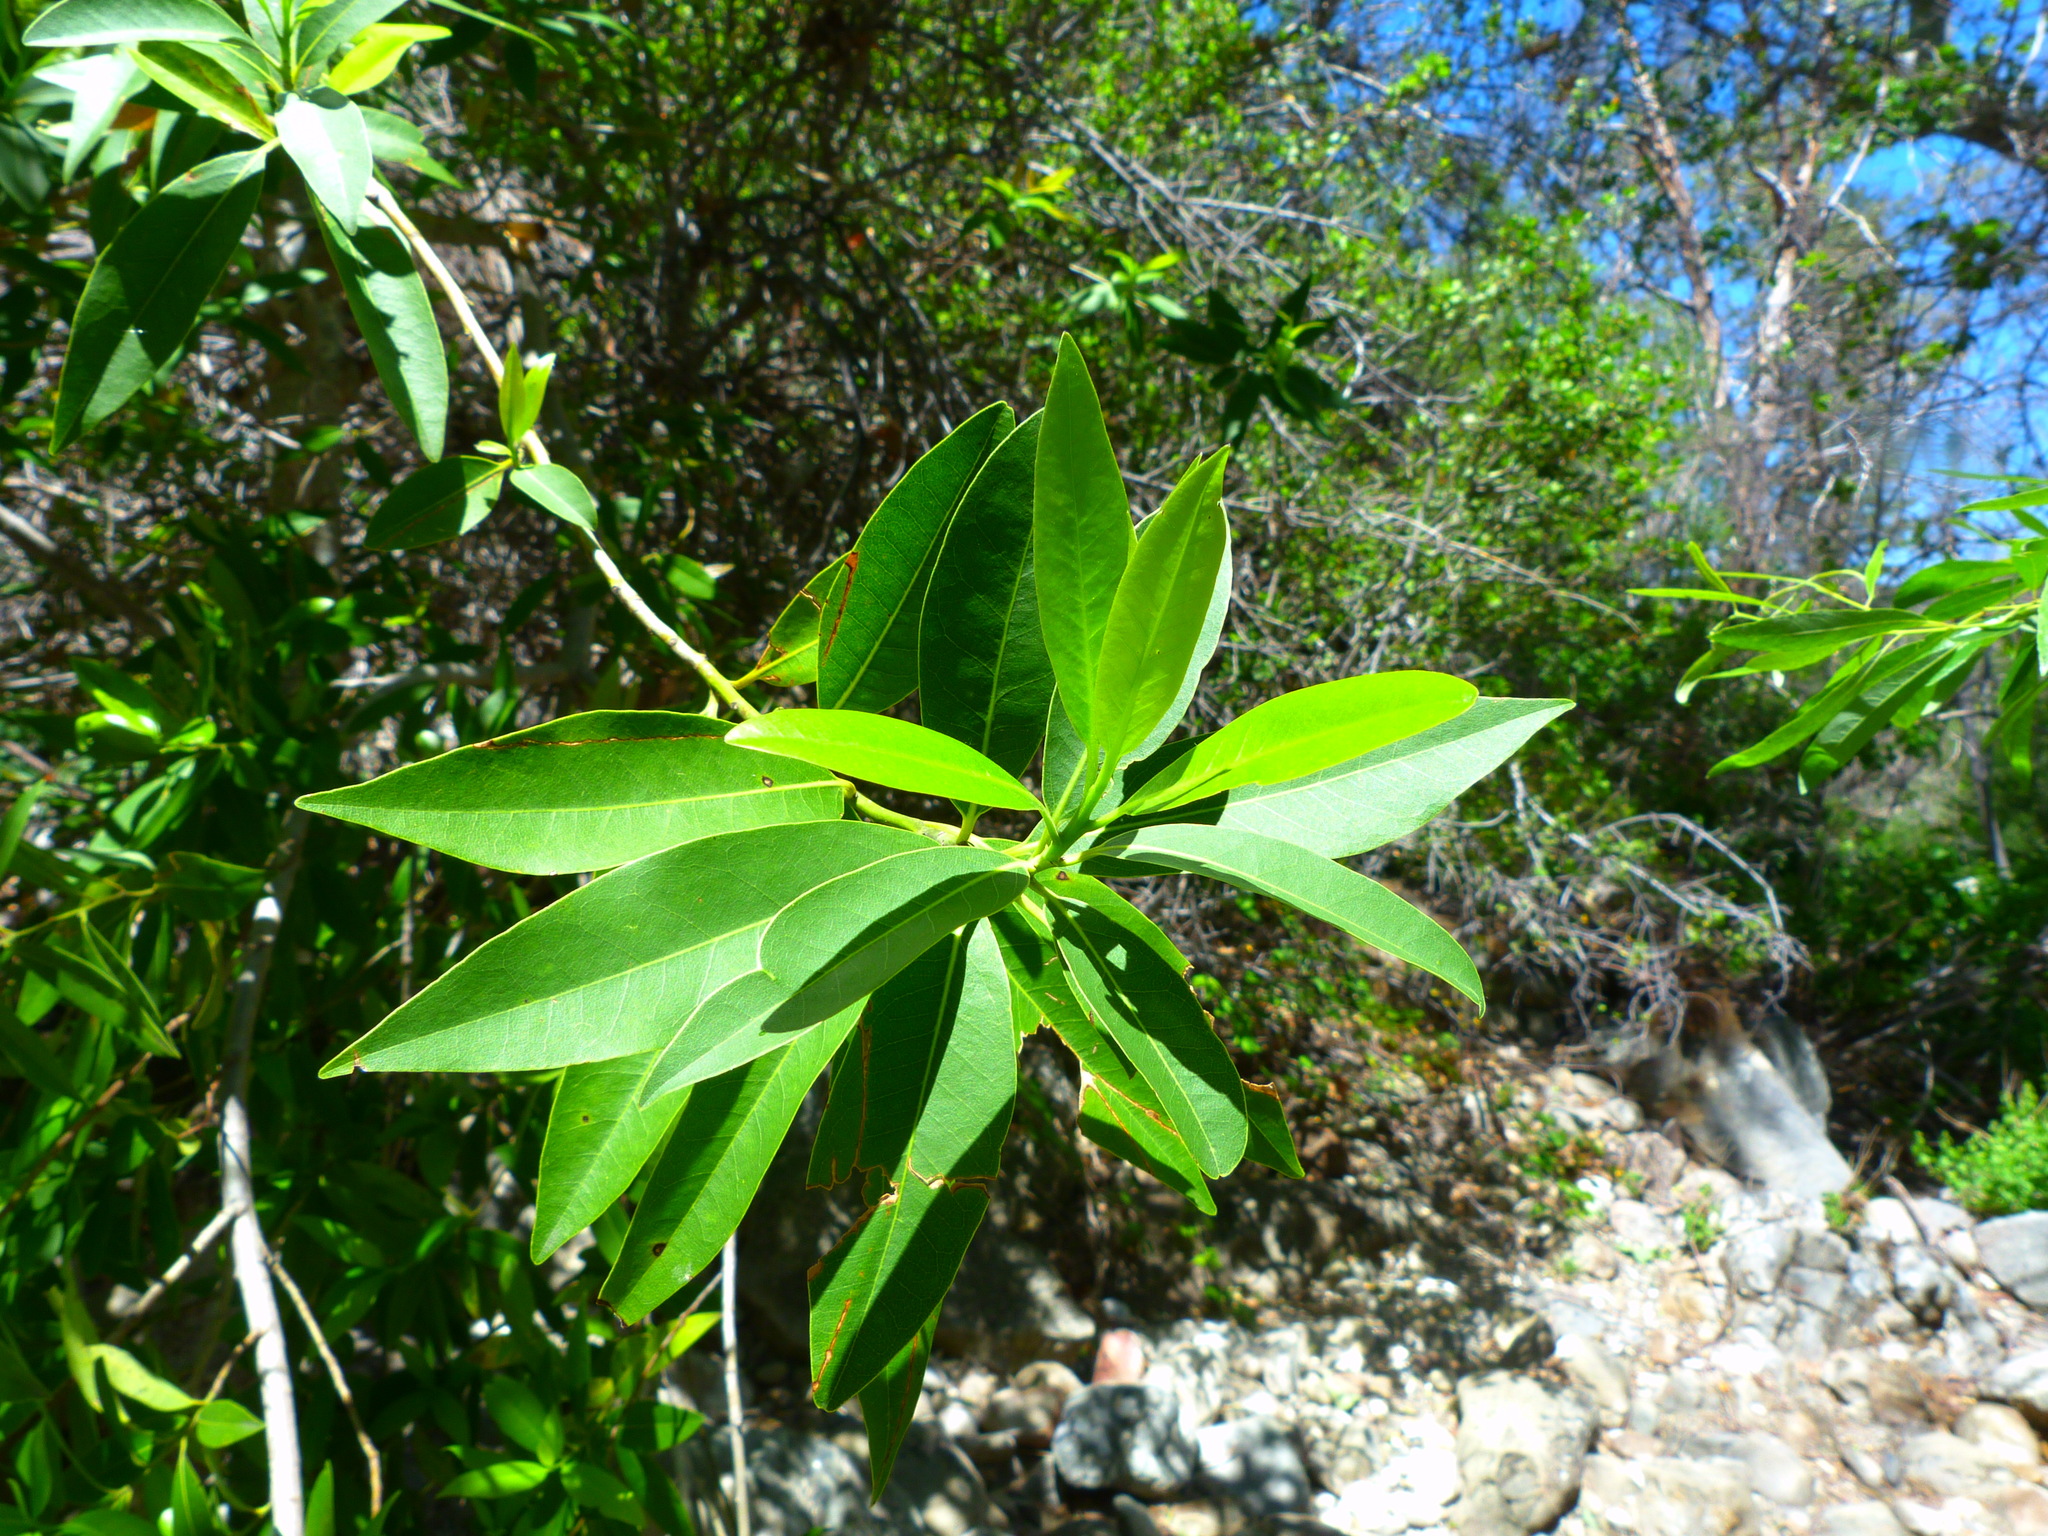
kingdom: Plantae
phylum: Tracheophyta
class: Magnoliopsida
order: Laurales
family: Lauraceae
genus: Umbellularia
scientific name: Umbellularia californica
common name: California bay
